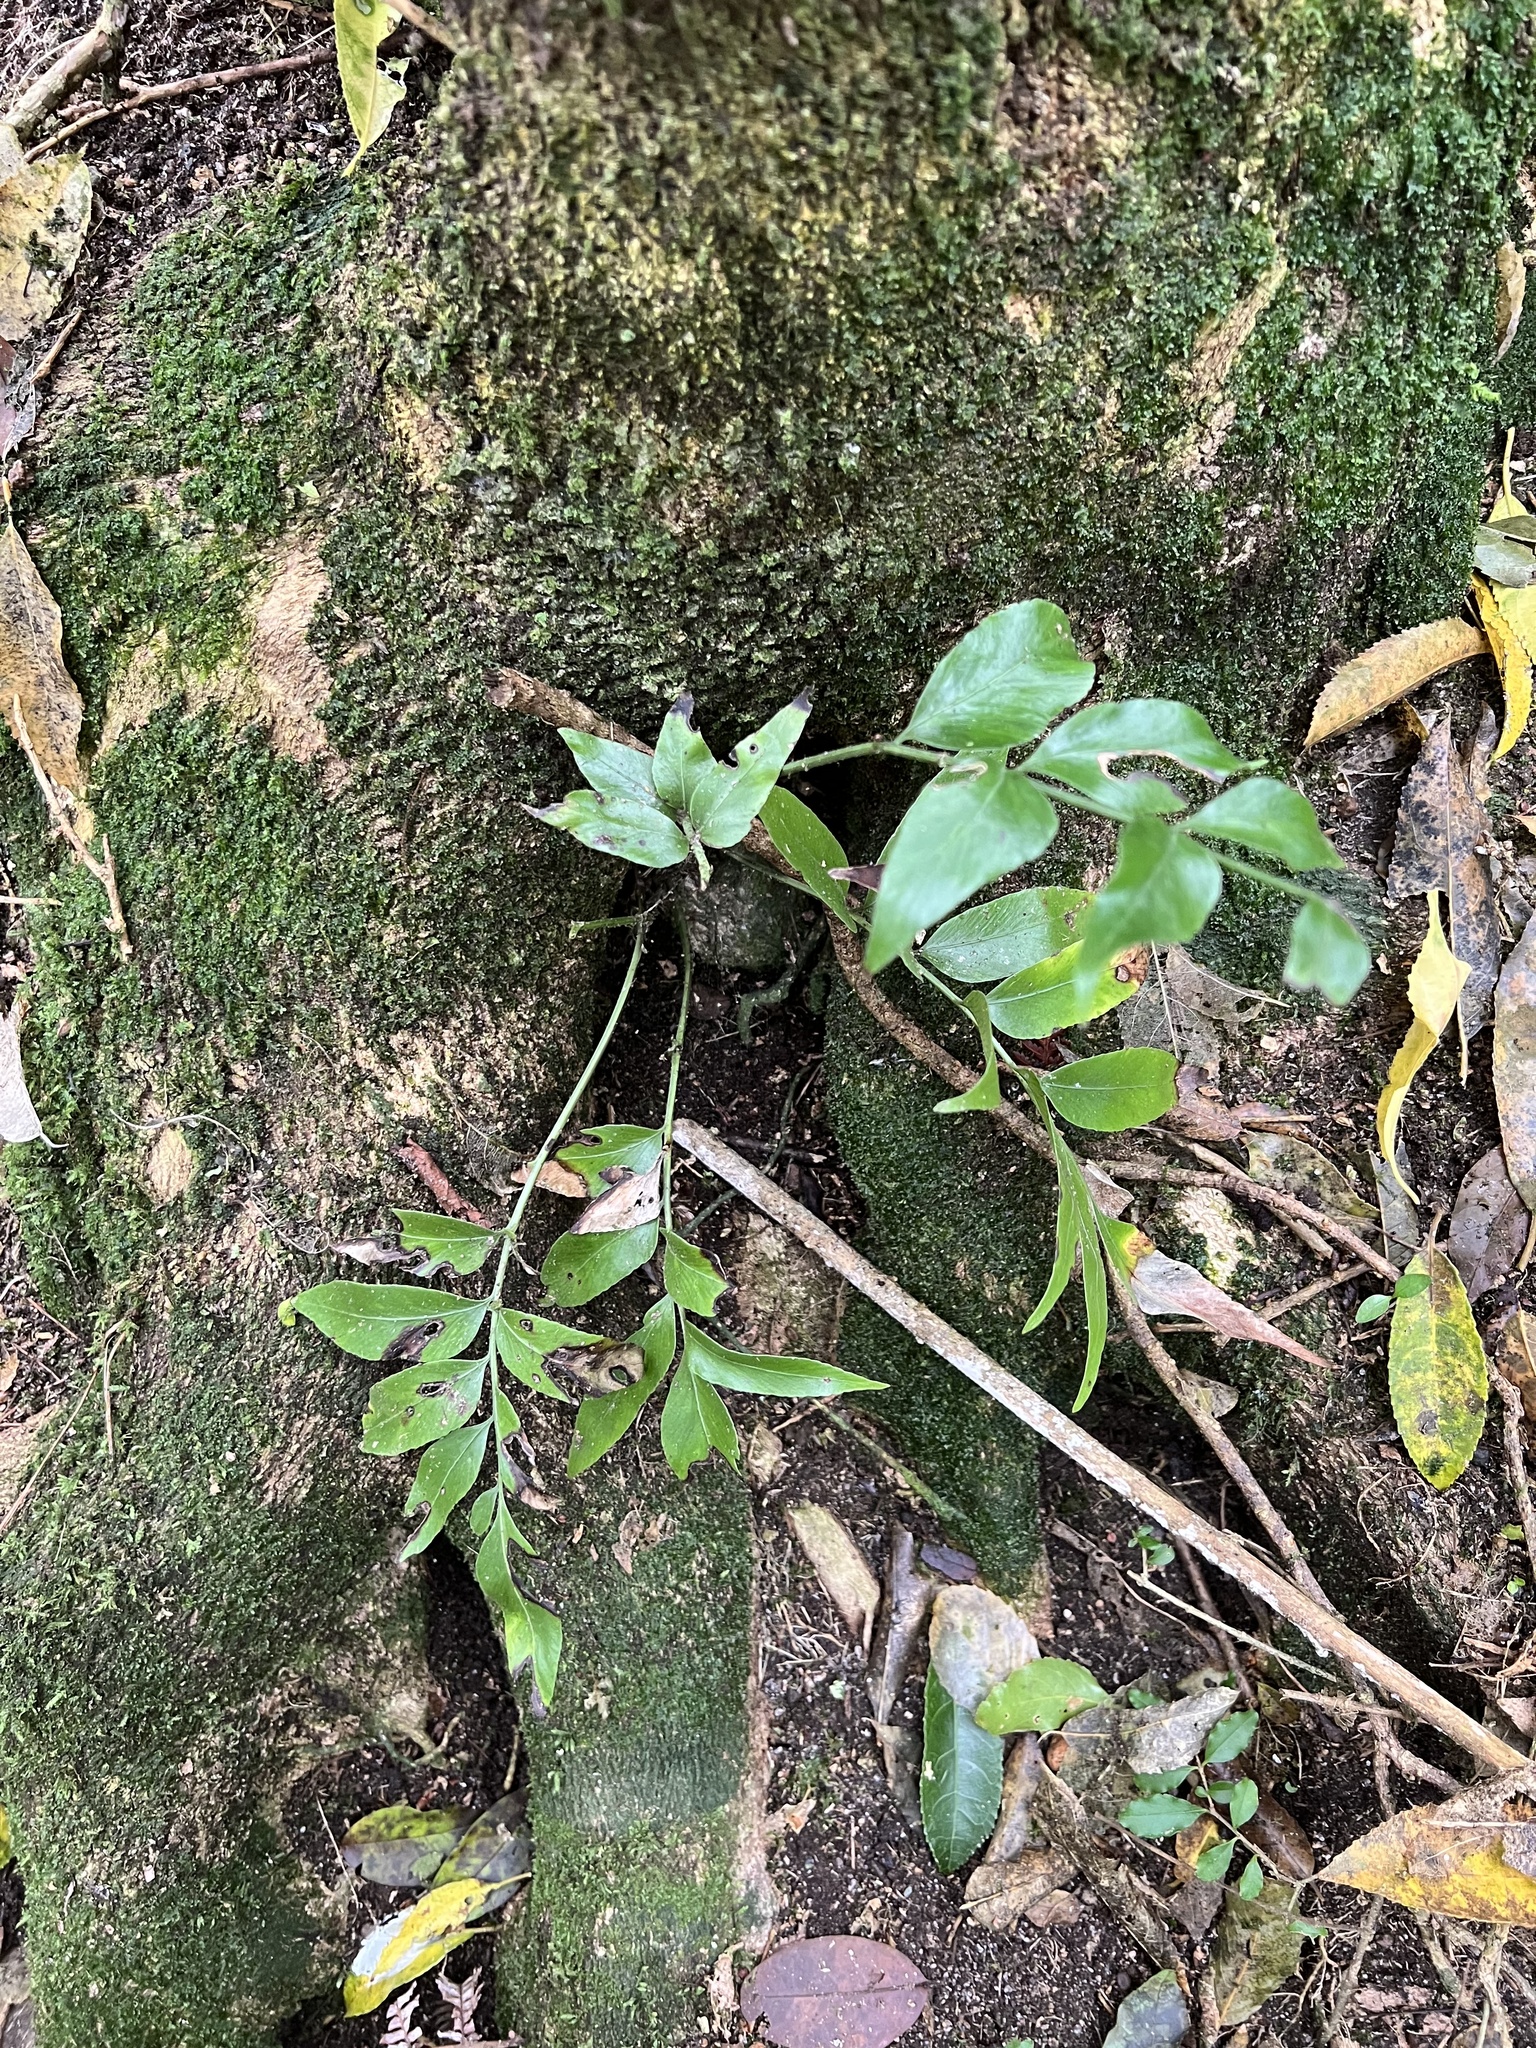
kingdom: Plantae
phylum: Tracheophyta
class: Polypodiopsida
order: Polypodiales
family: Aspleniaceae
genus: Asplenium
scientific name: Asplenium oblongifolium
